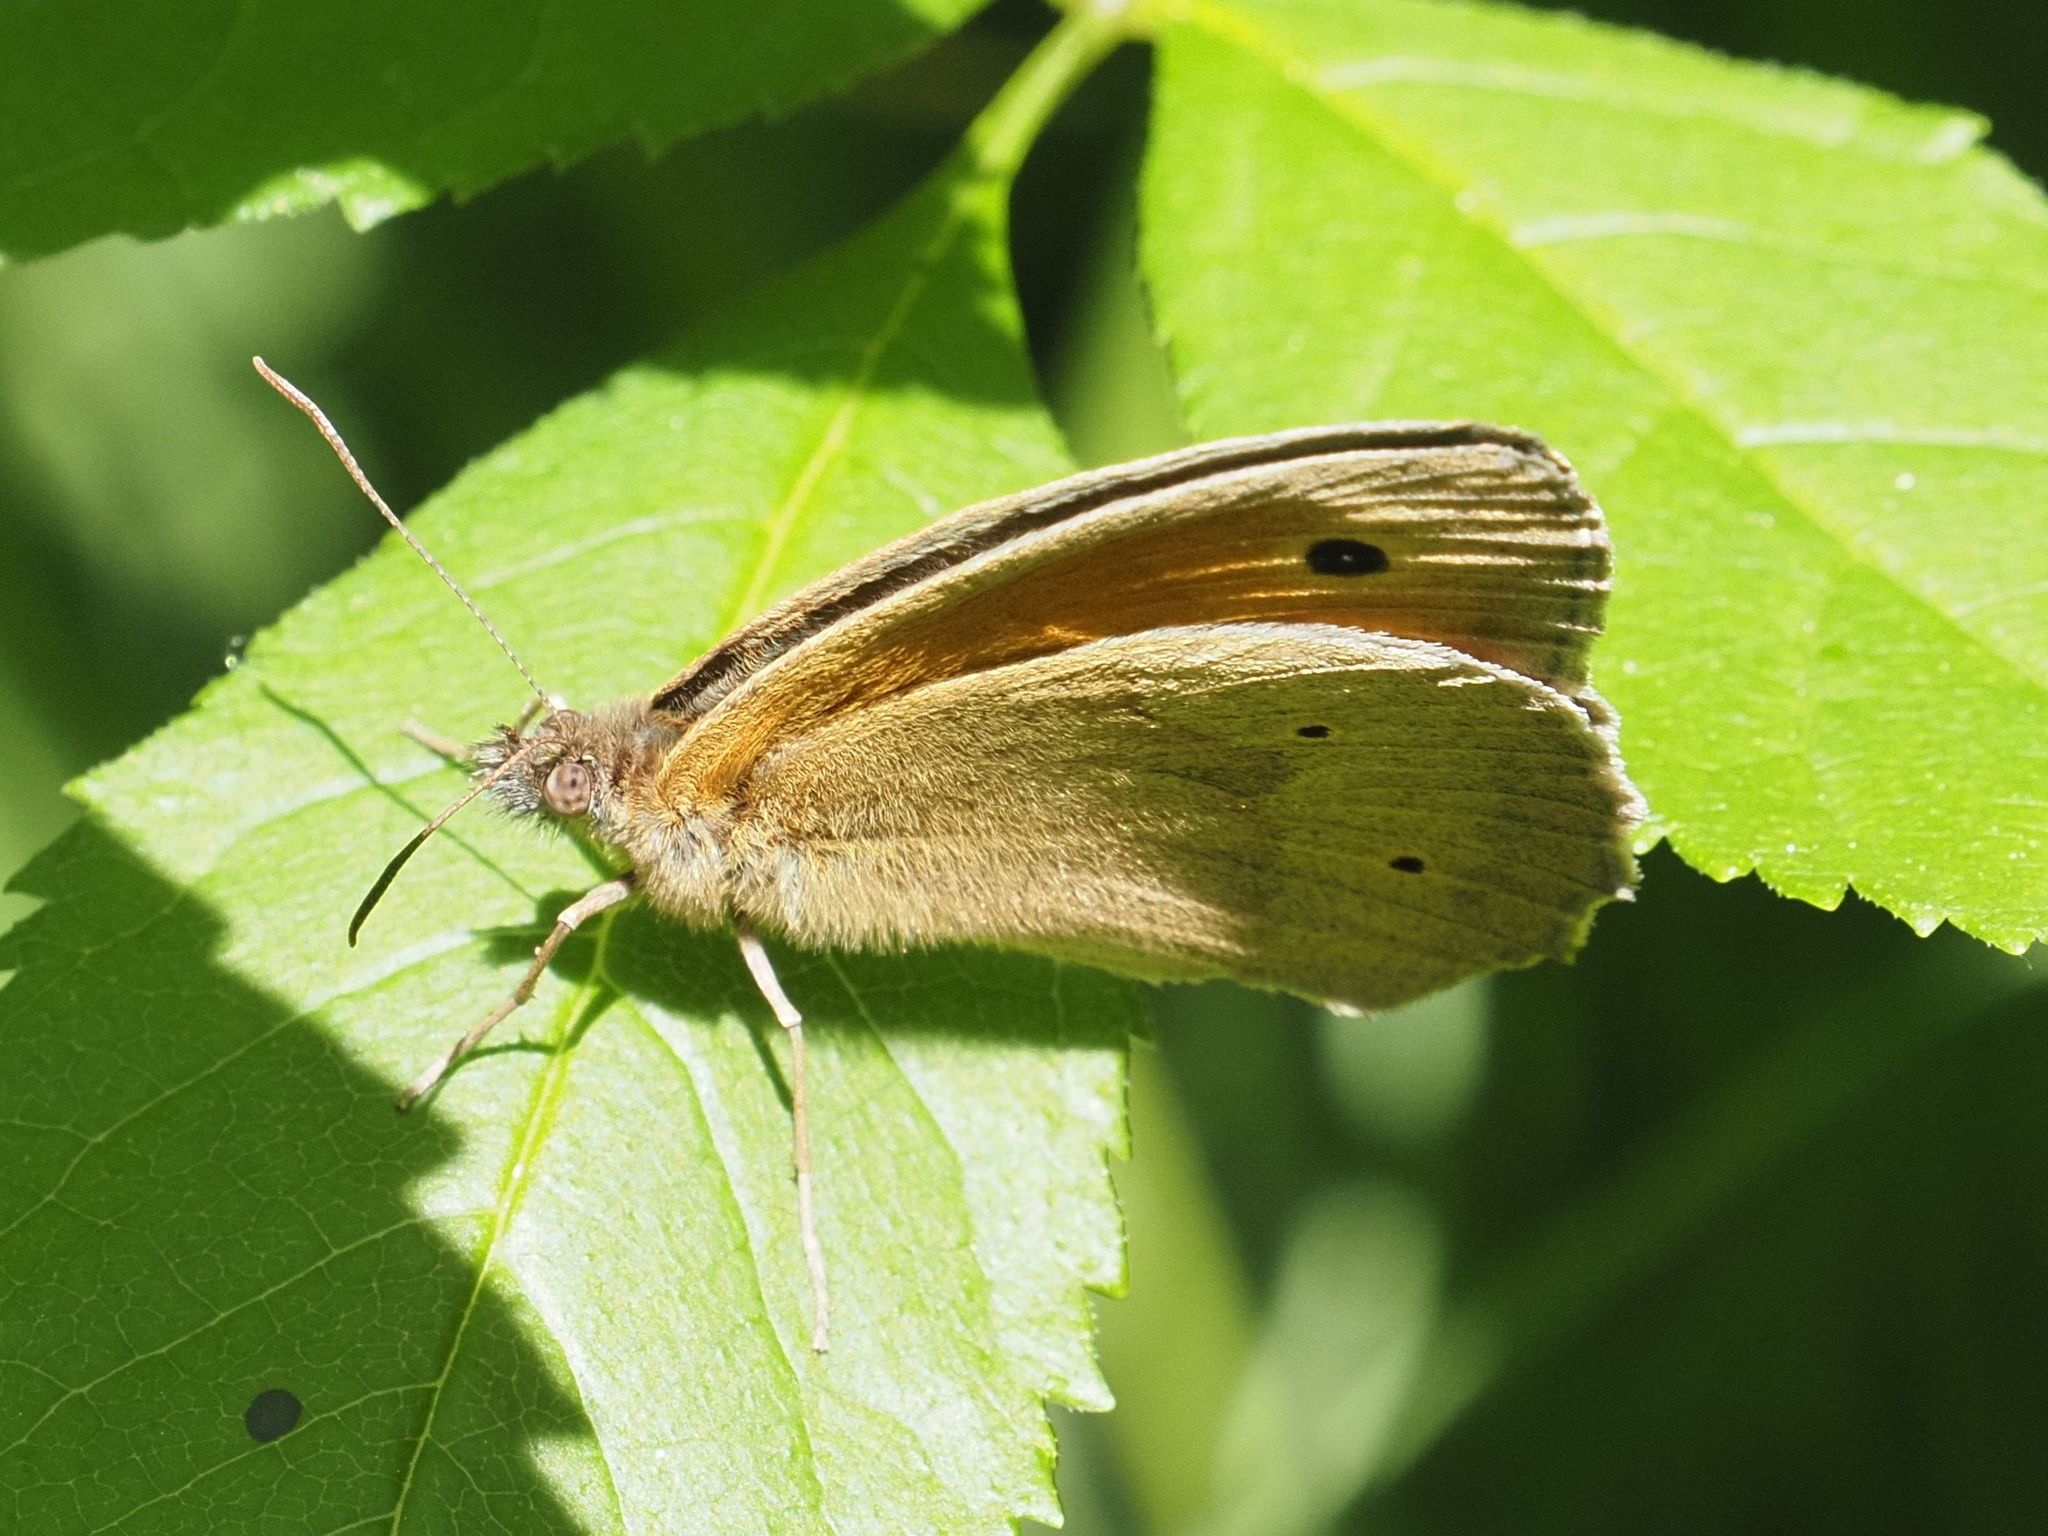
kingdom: Animalia
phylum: Arthropoda
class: Insecta
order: Lepidoptera
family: Nymphalidae
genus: Maniola
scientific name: Maniola jurtina
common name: Meadow brown
